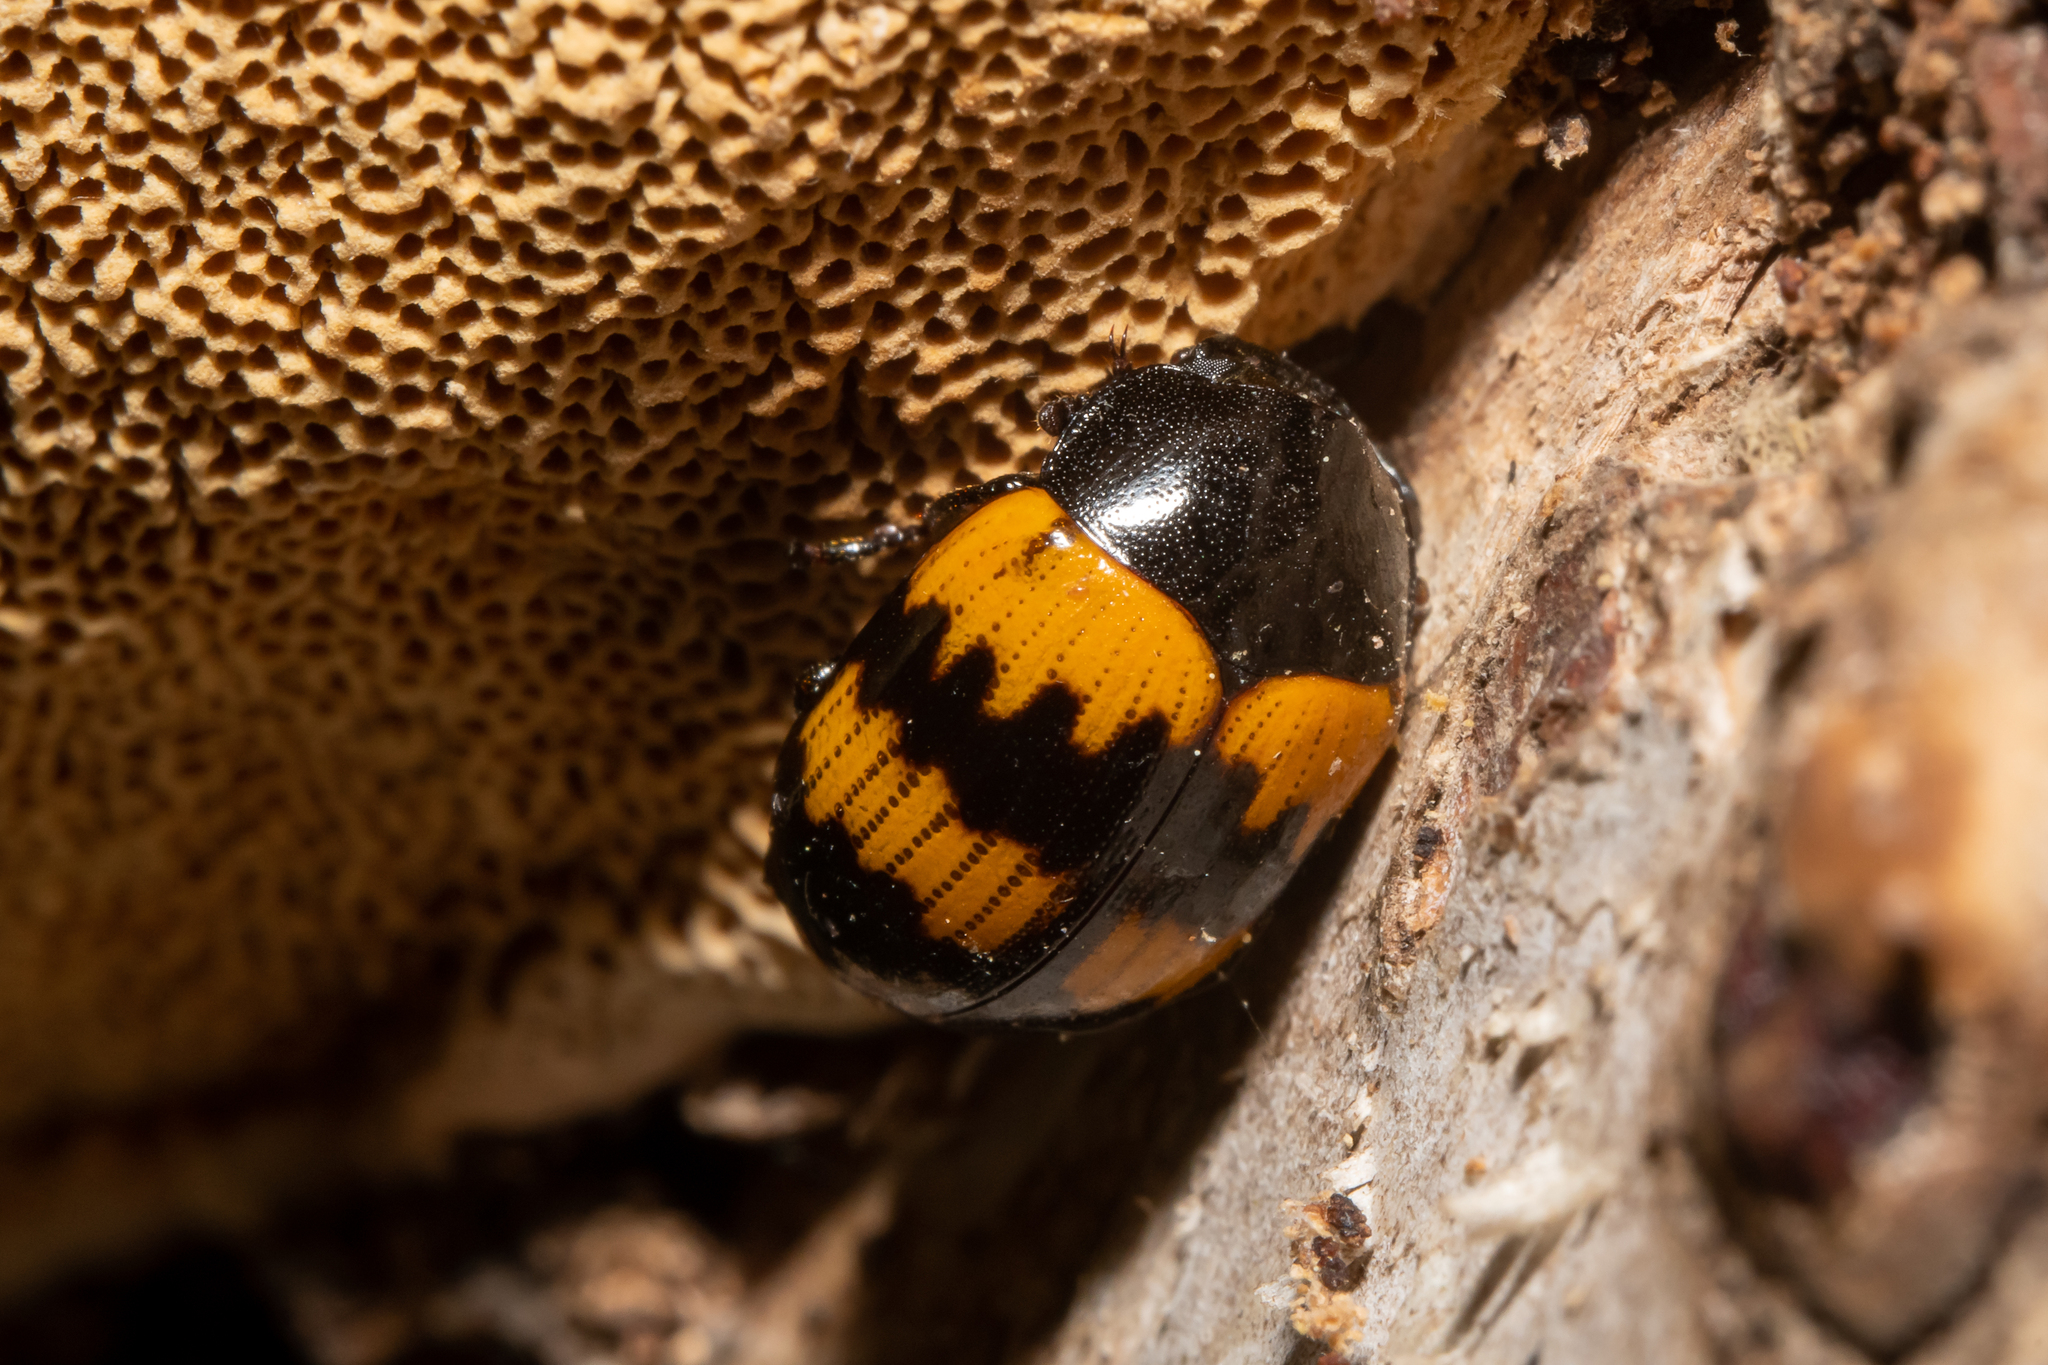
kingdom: Animalia
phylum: Arthropoda
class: Insecta
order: Coleoptera
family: Tenebrionidae
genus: Diaperis
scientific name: Diaperis boleti
